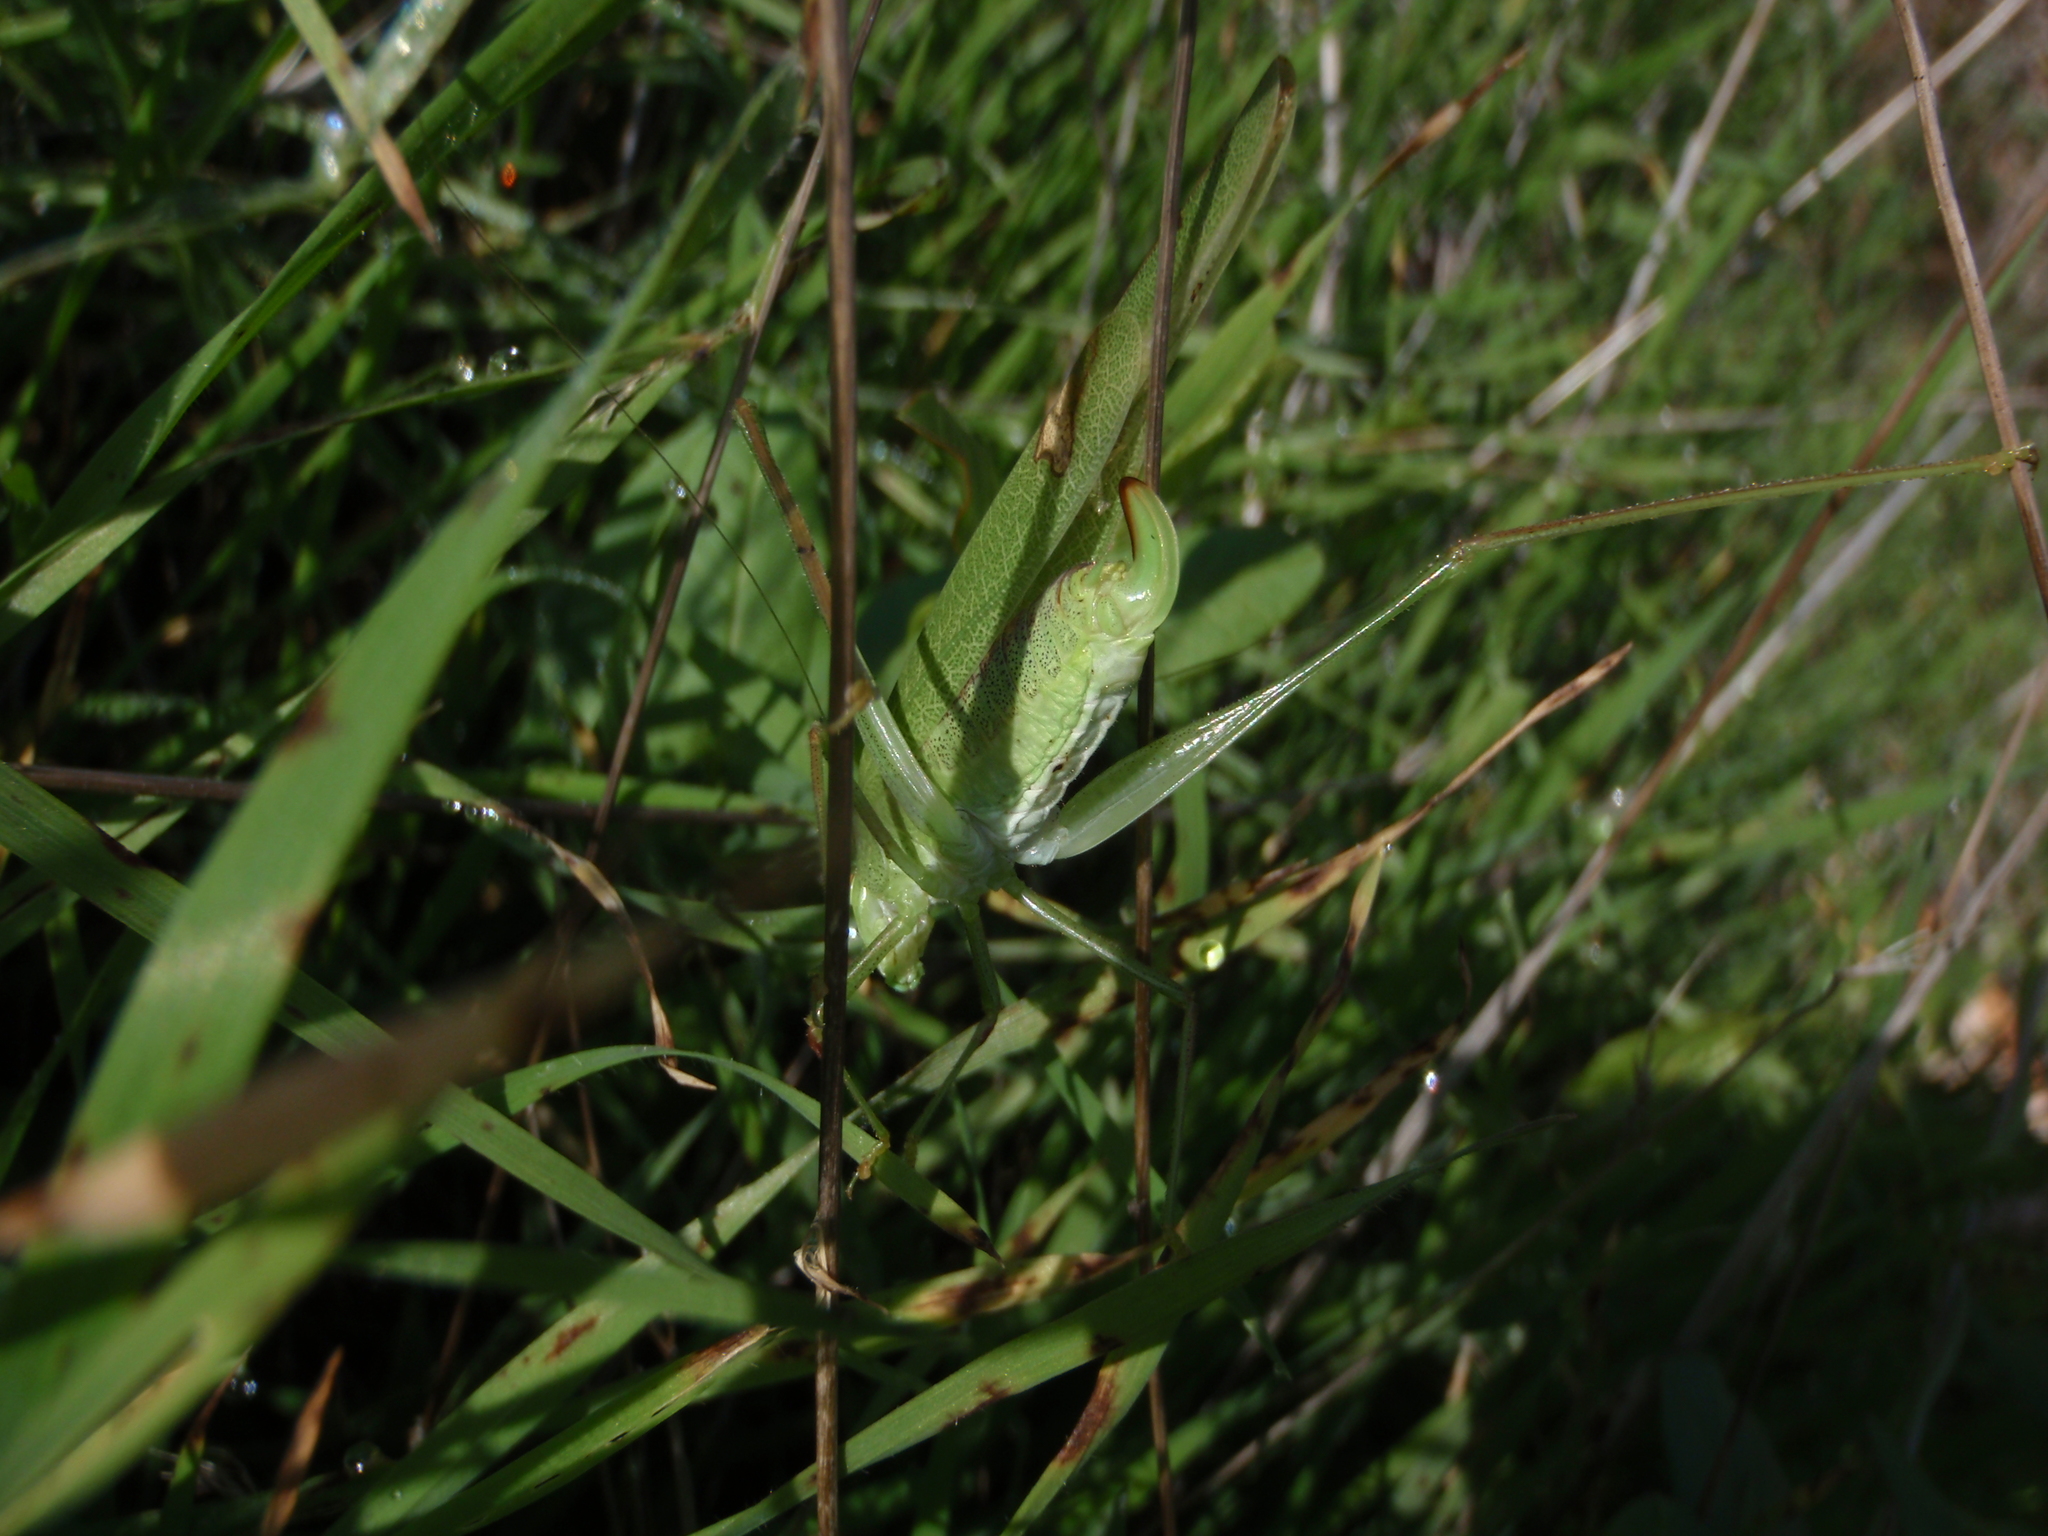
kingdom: Animalia
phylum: Arthropoda
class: Insecta
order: Orthoptera
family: Tettigoniidae
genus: Phaneroptera
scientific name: Phaneroptera nana
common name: Southern sickle bush-cricket
